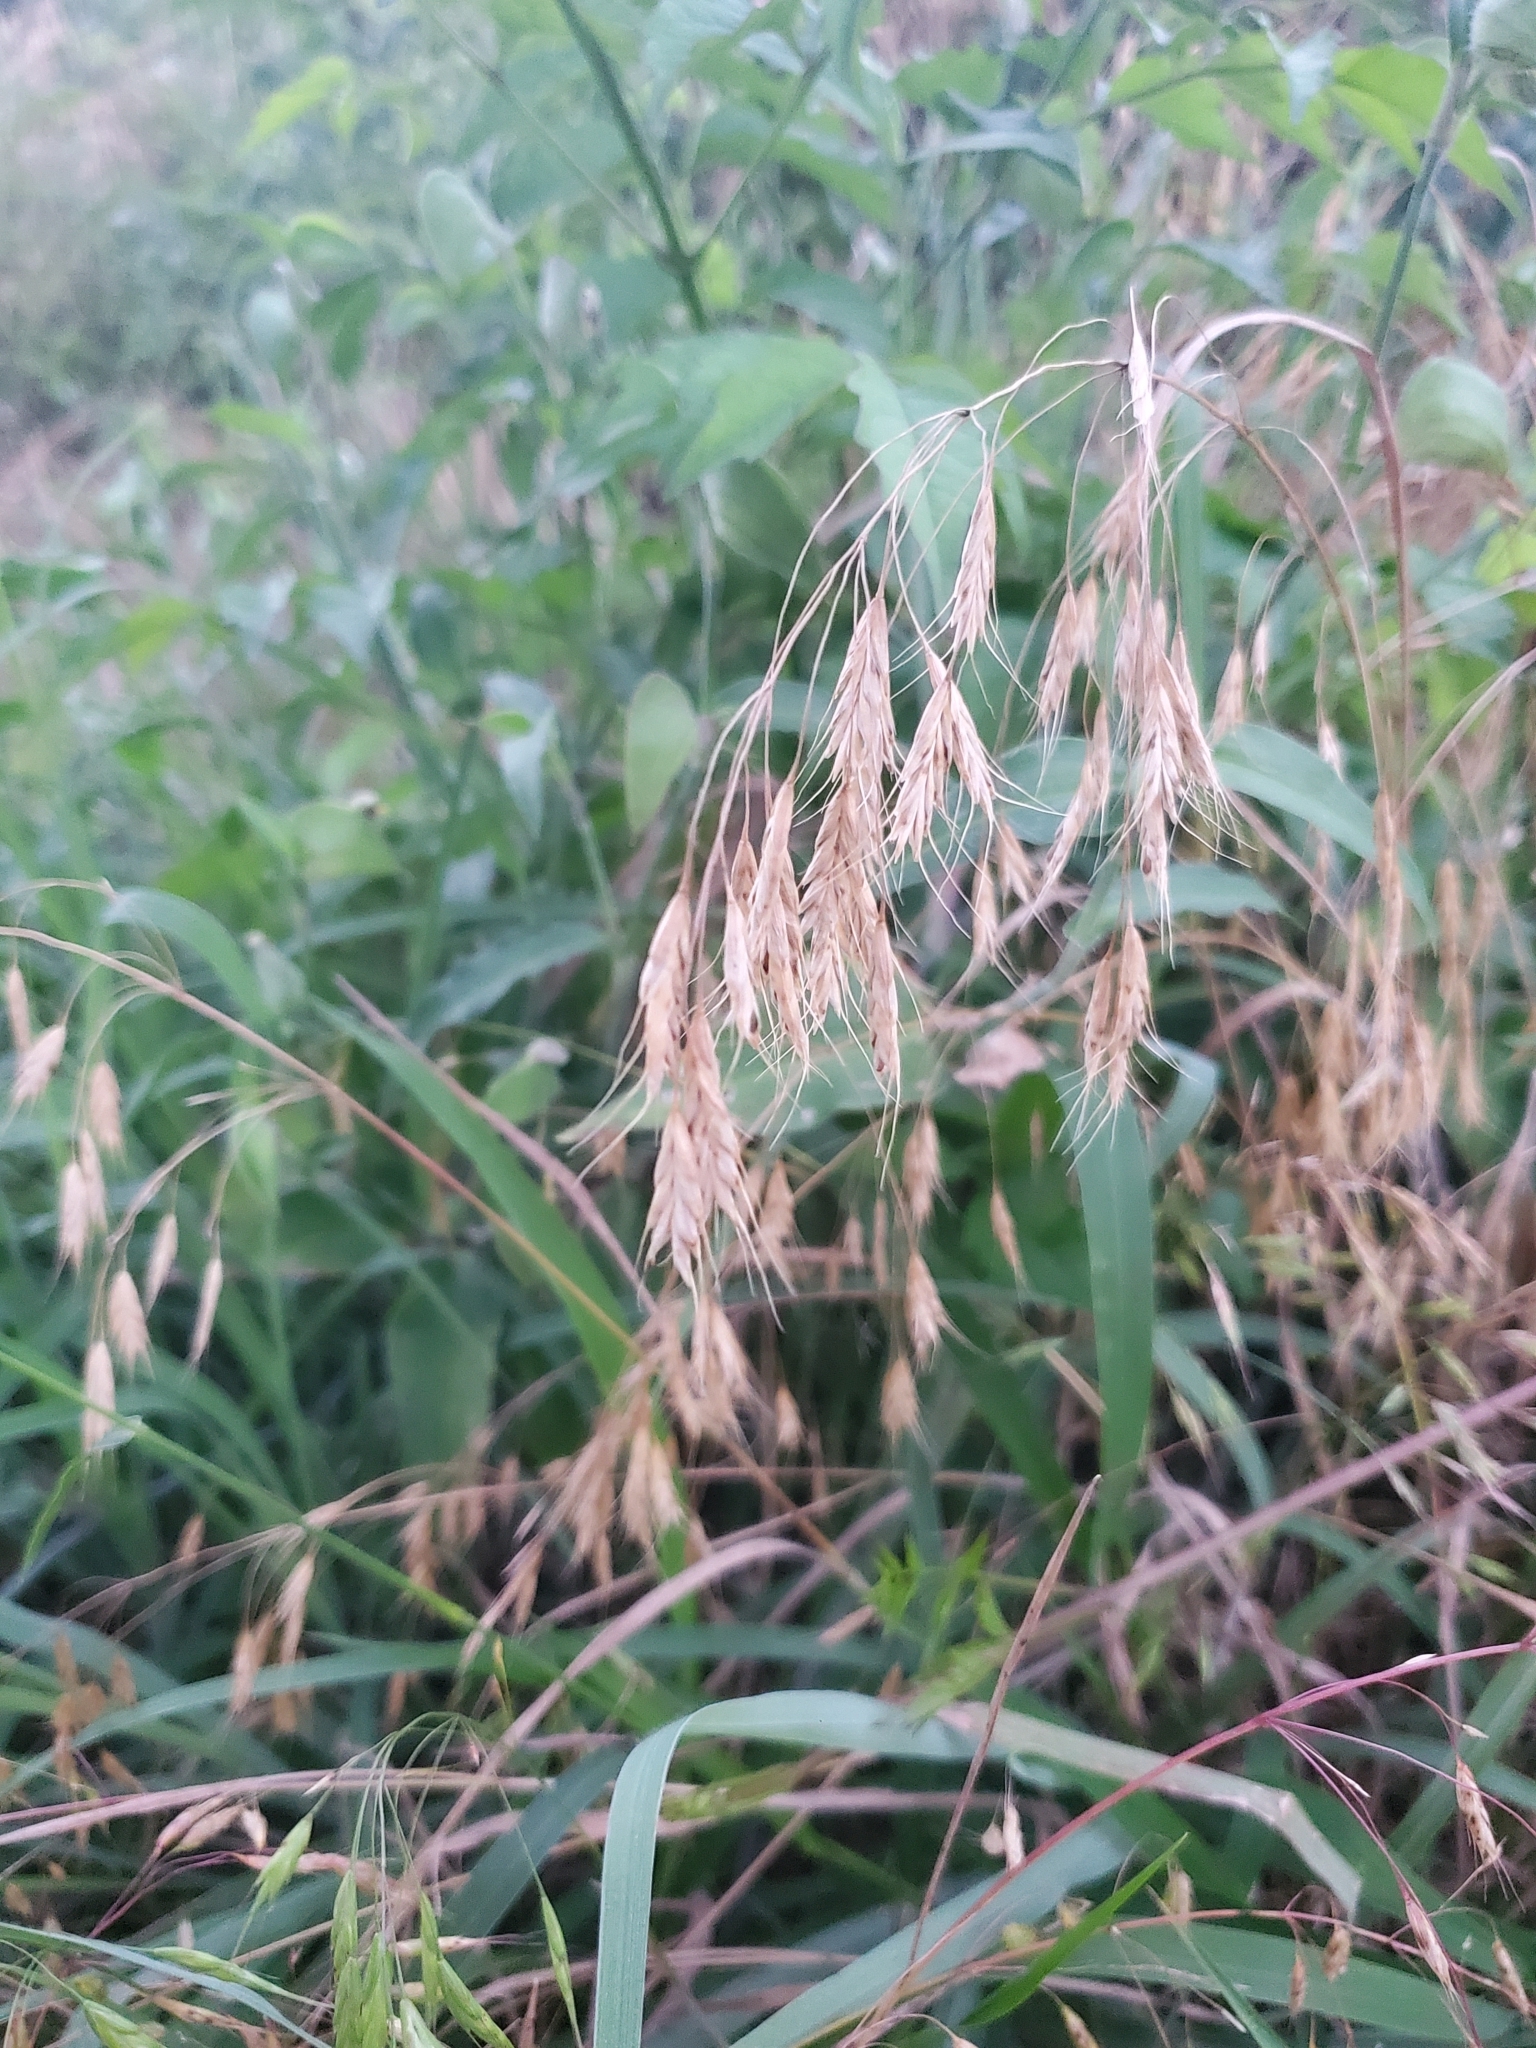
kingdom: Plantae
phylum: Tracheophyta
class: Liliopsida
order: Poales
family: Poaceae
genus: Bromus
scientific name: Bromus japonicus
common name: Japanese brome
